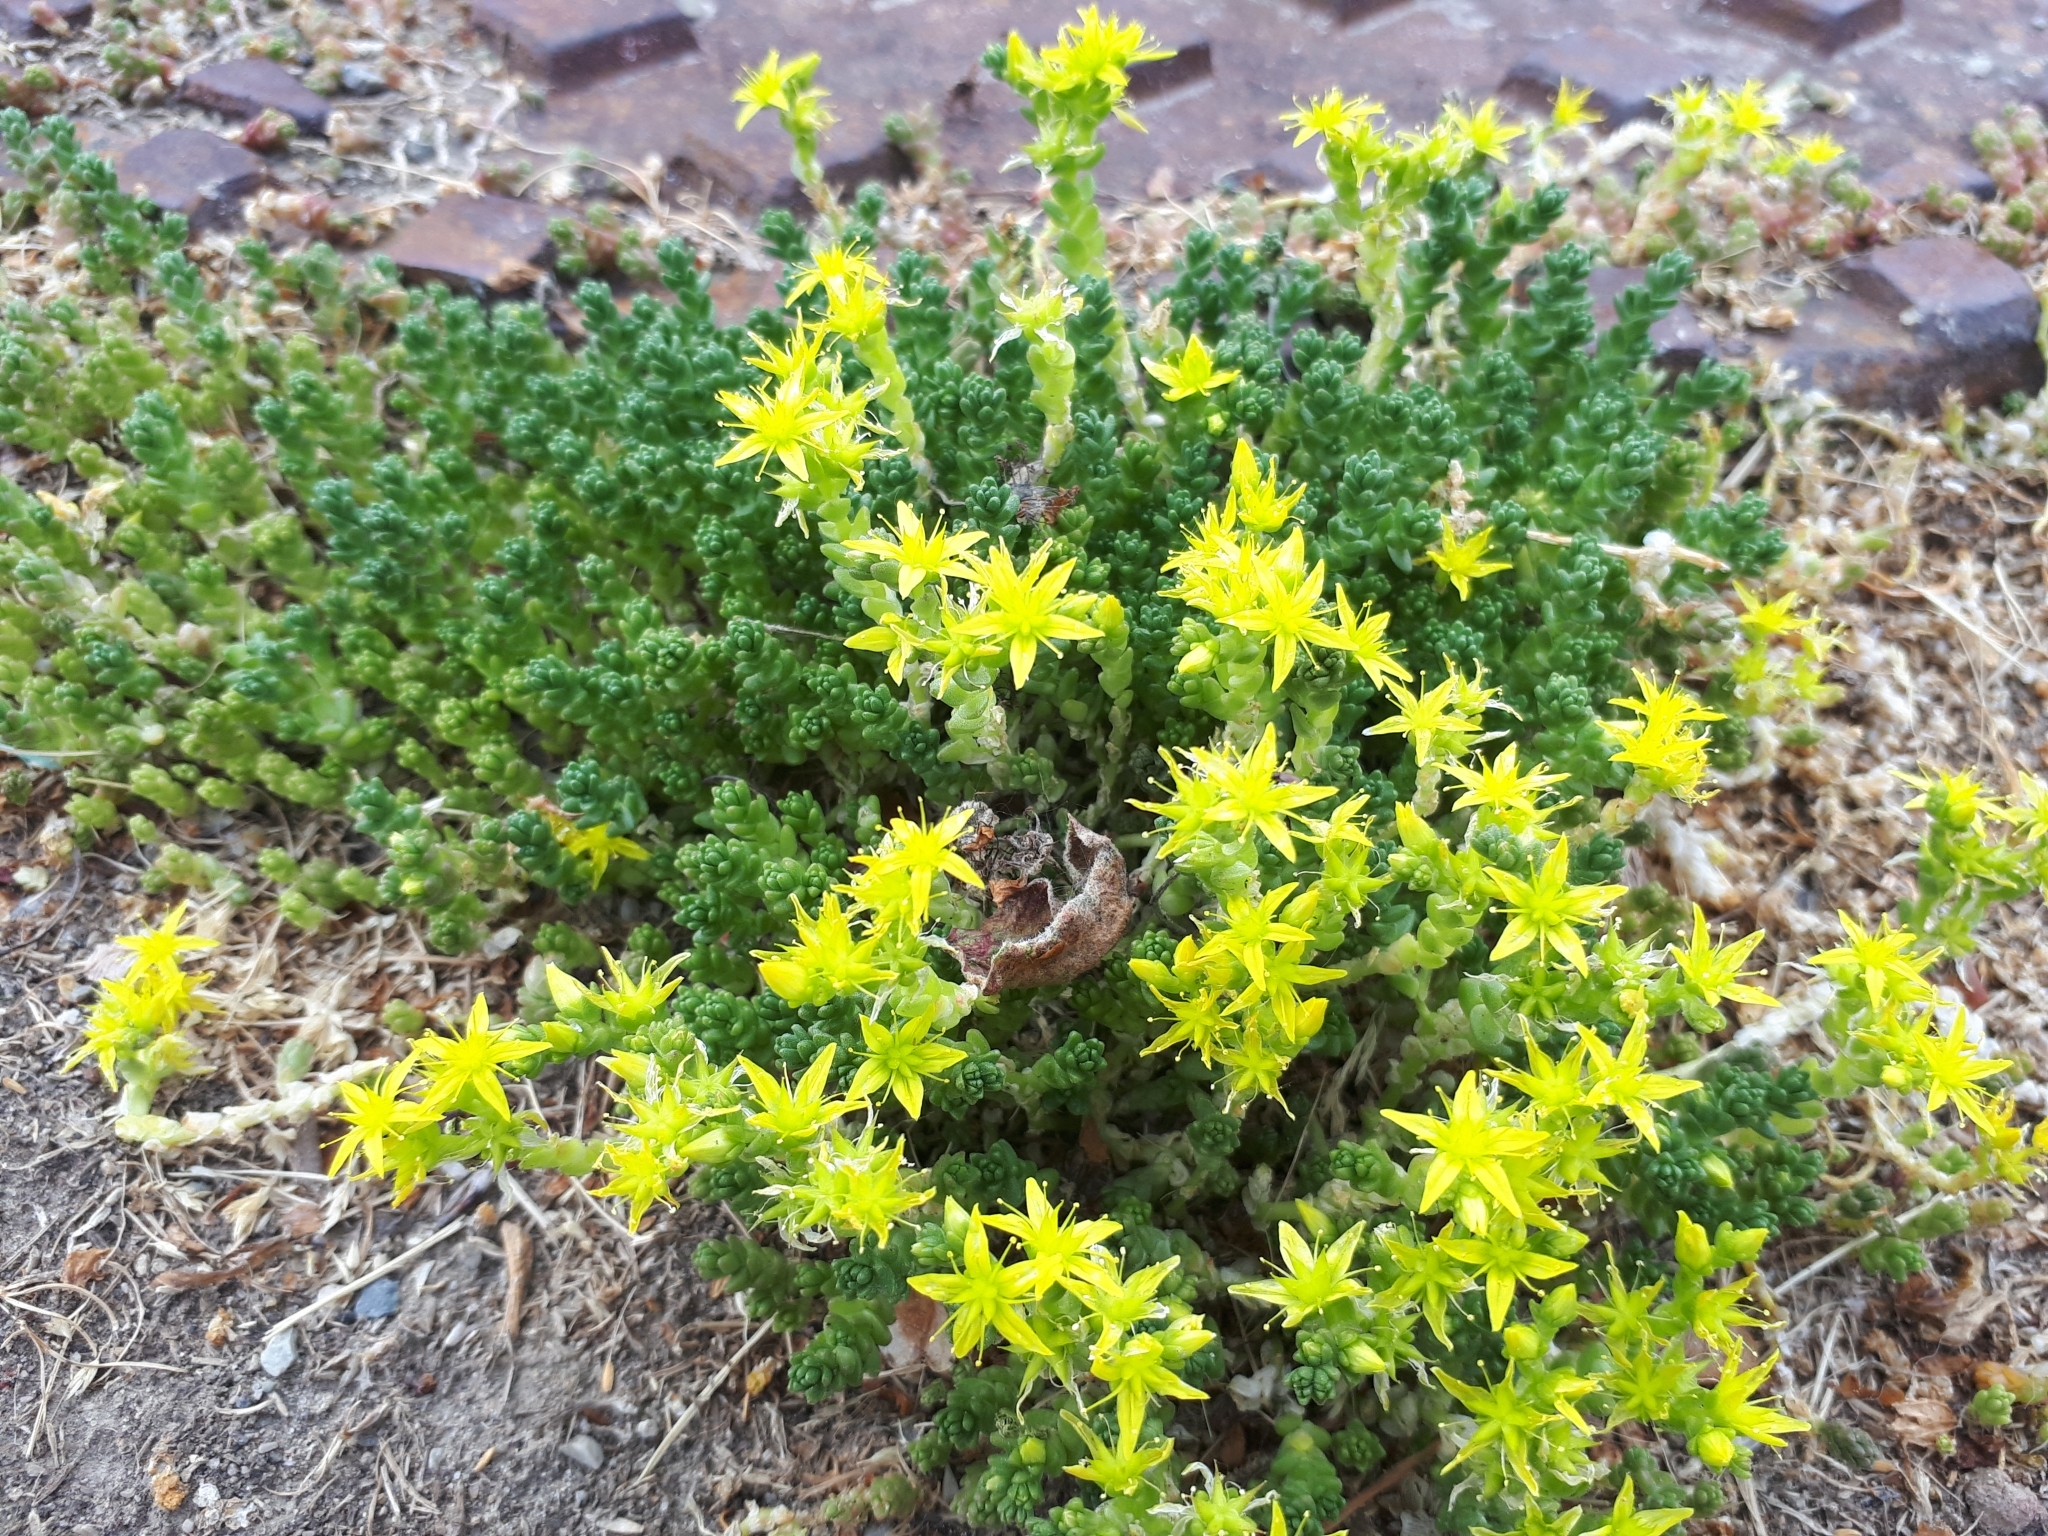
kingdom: Plantae
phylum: Tracheophyta
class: Magnoliopsida
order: Saxifragales
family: Crassulaceae
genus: Sedum
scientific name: Sedum acre
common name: Biting stonecrop
